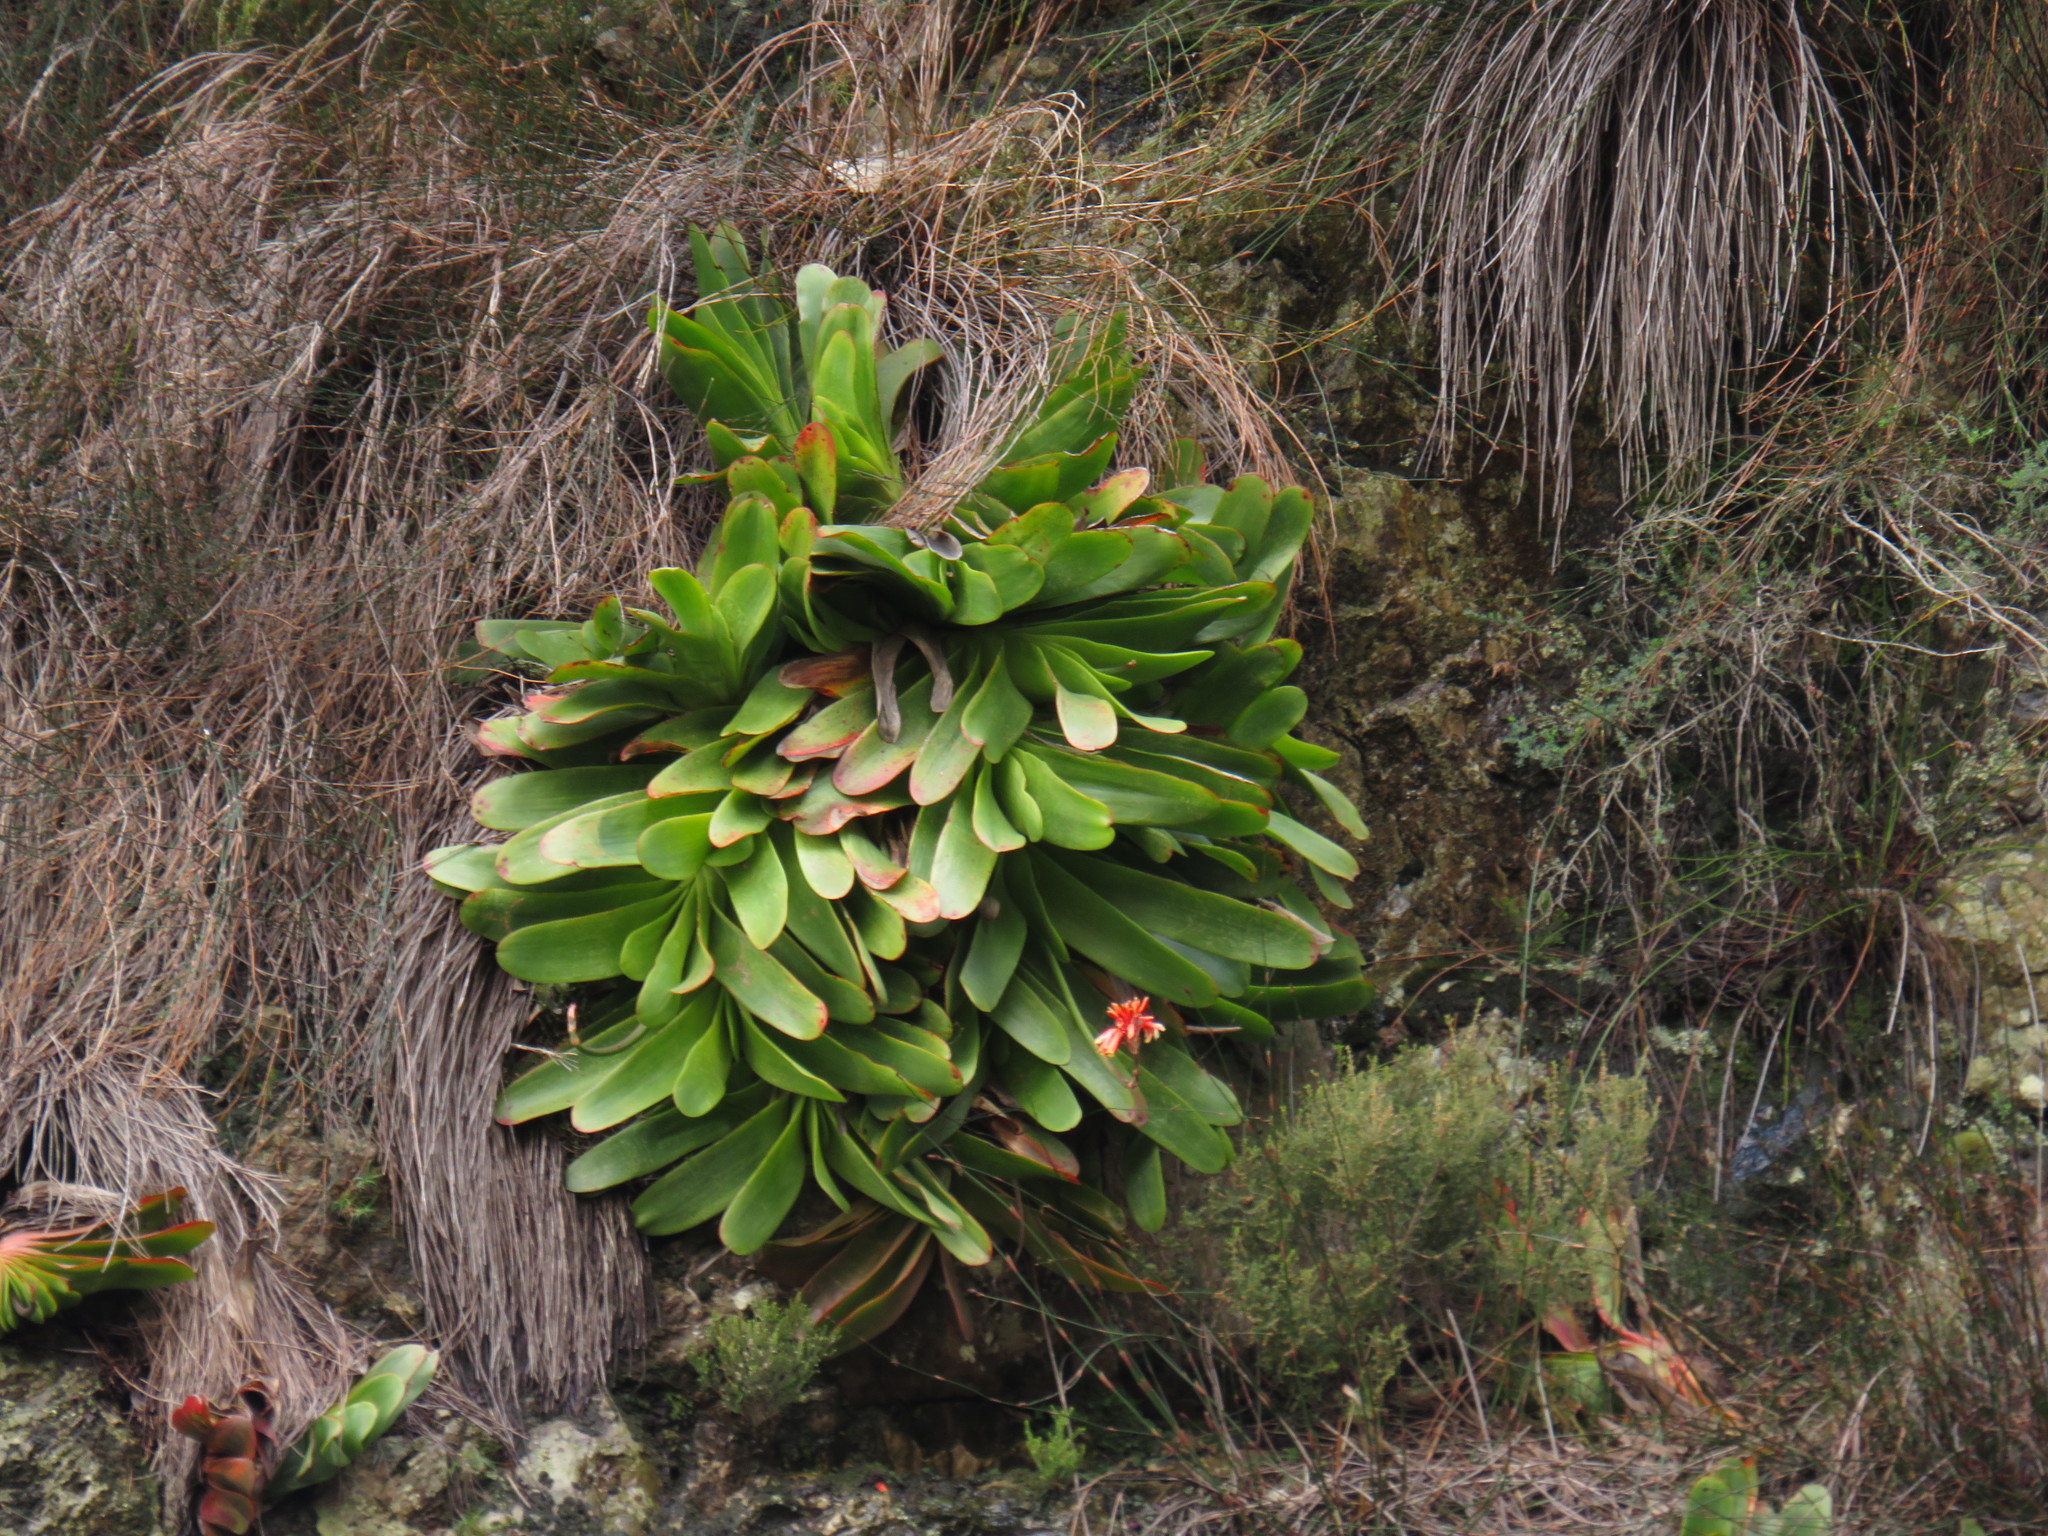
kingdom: Plantae
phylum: Tracheophyta
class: Liliopsida
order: Asparagales
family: Asphodelaceae
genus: Kumara
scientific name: Kumara haemanthifolia
